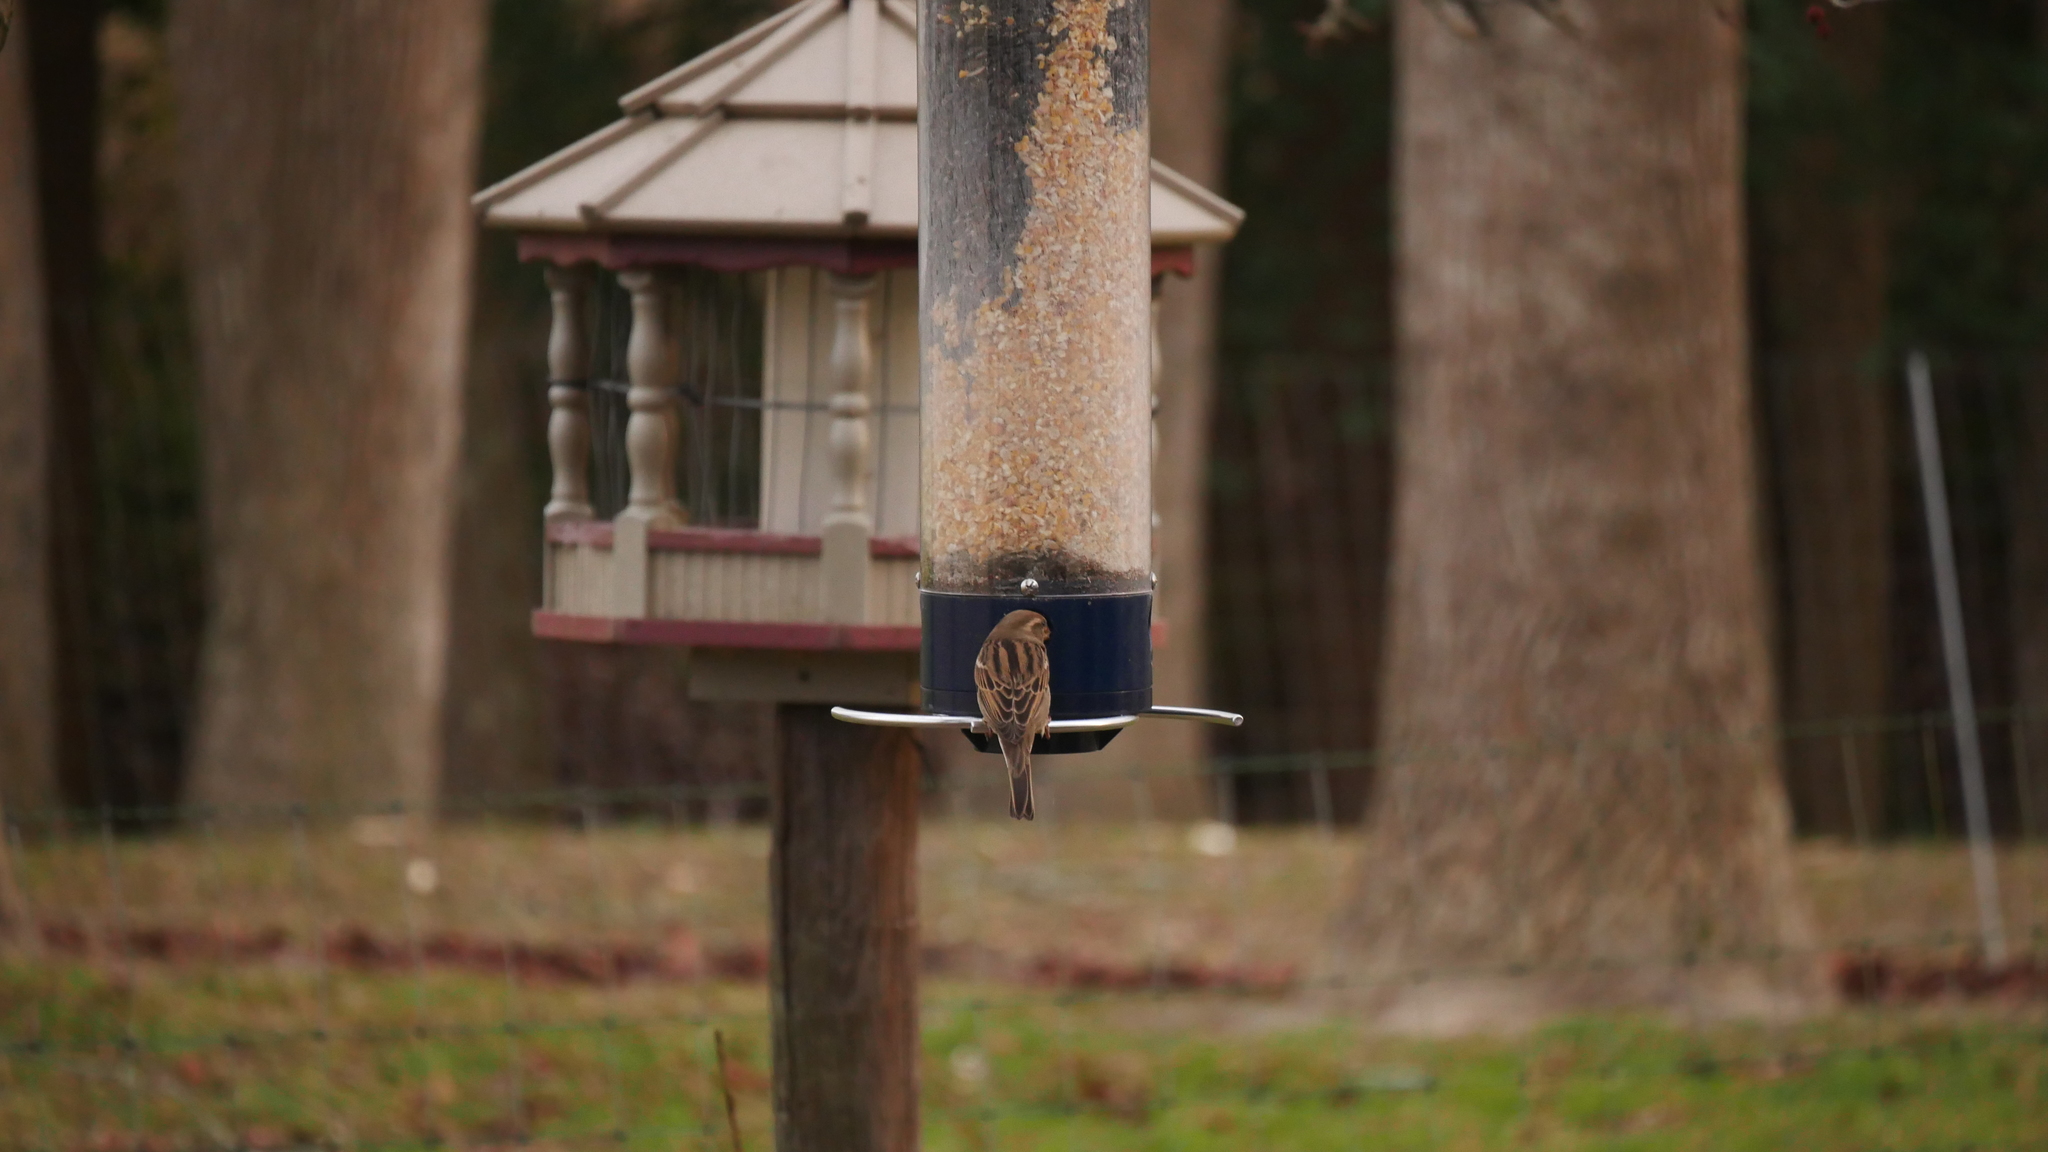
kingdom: Animalia
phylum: Chordata
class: Aves
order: Passeriformes
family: Passeridae
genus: Passer
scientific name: Passer domesticus
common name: House sparrow
